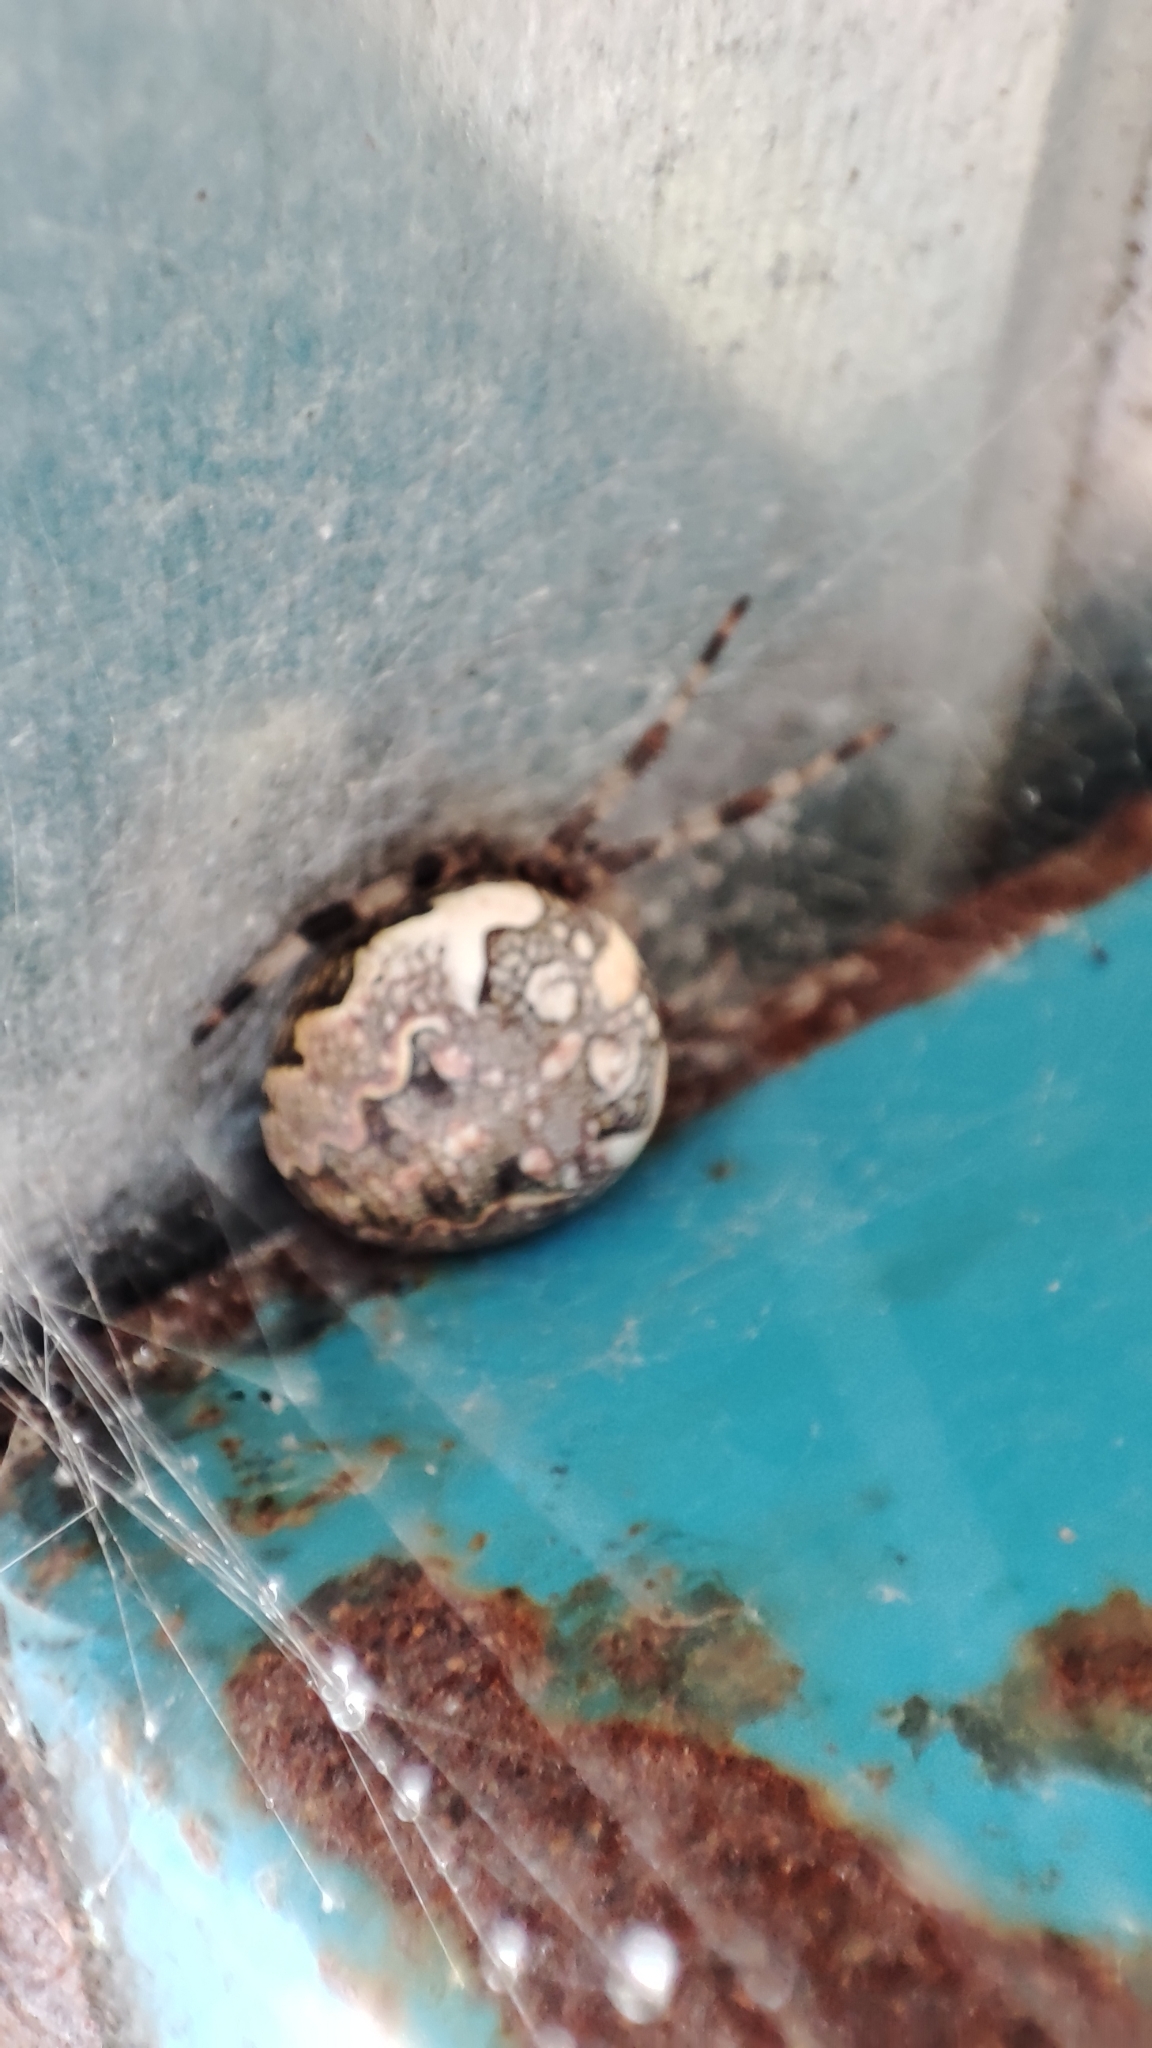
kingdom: Animalia
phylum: Arthropoda
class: Arachnida
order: Araneae
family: Araneidae
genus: Araneus
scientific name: Araneus marmoreus
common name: Marbled orbweaver
